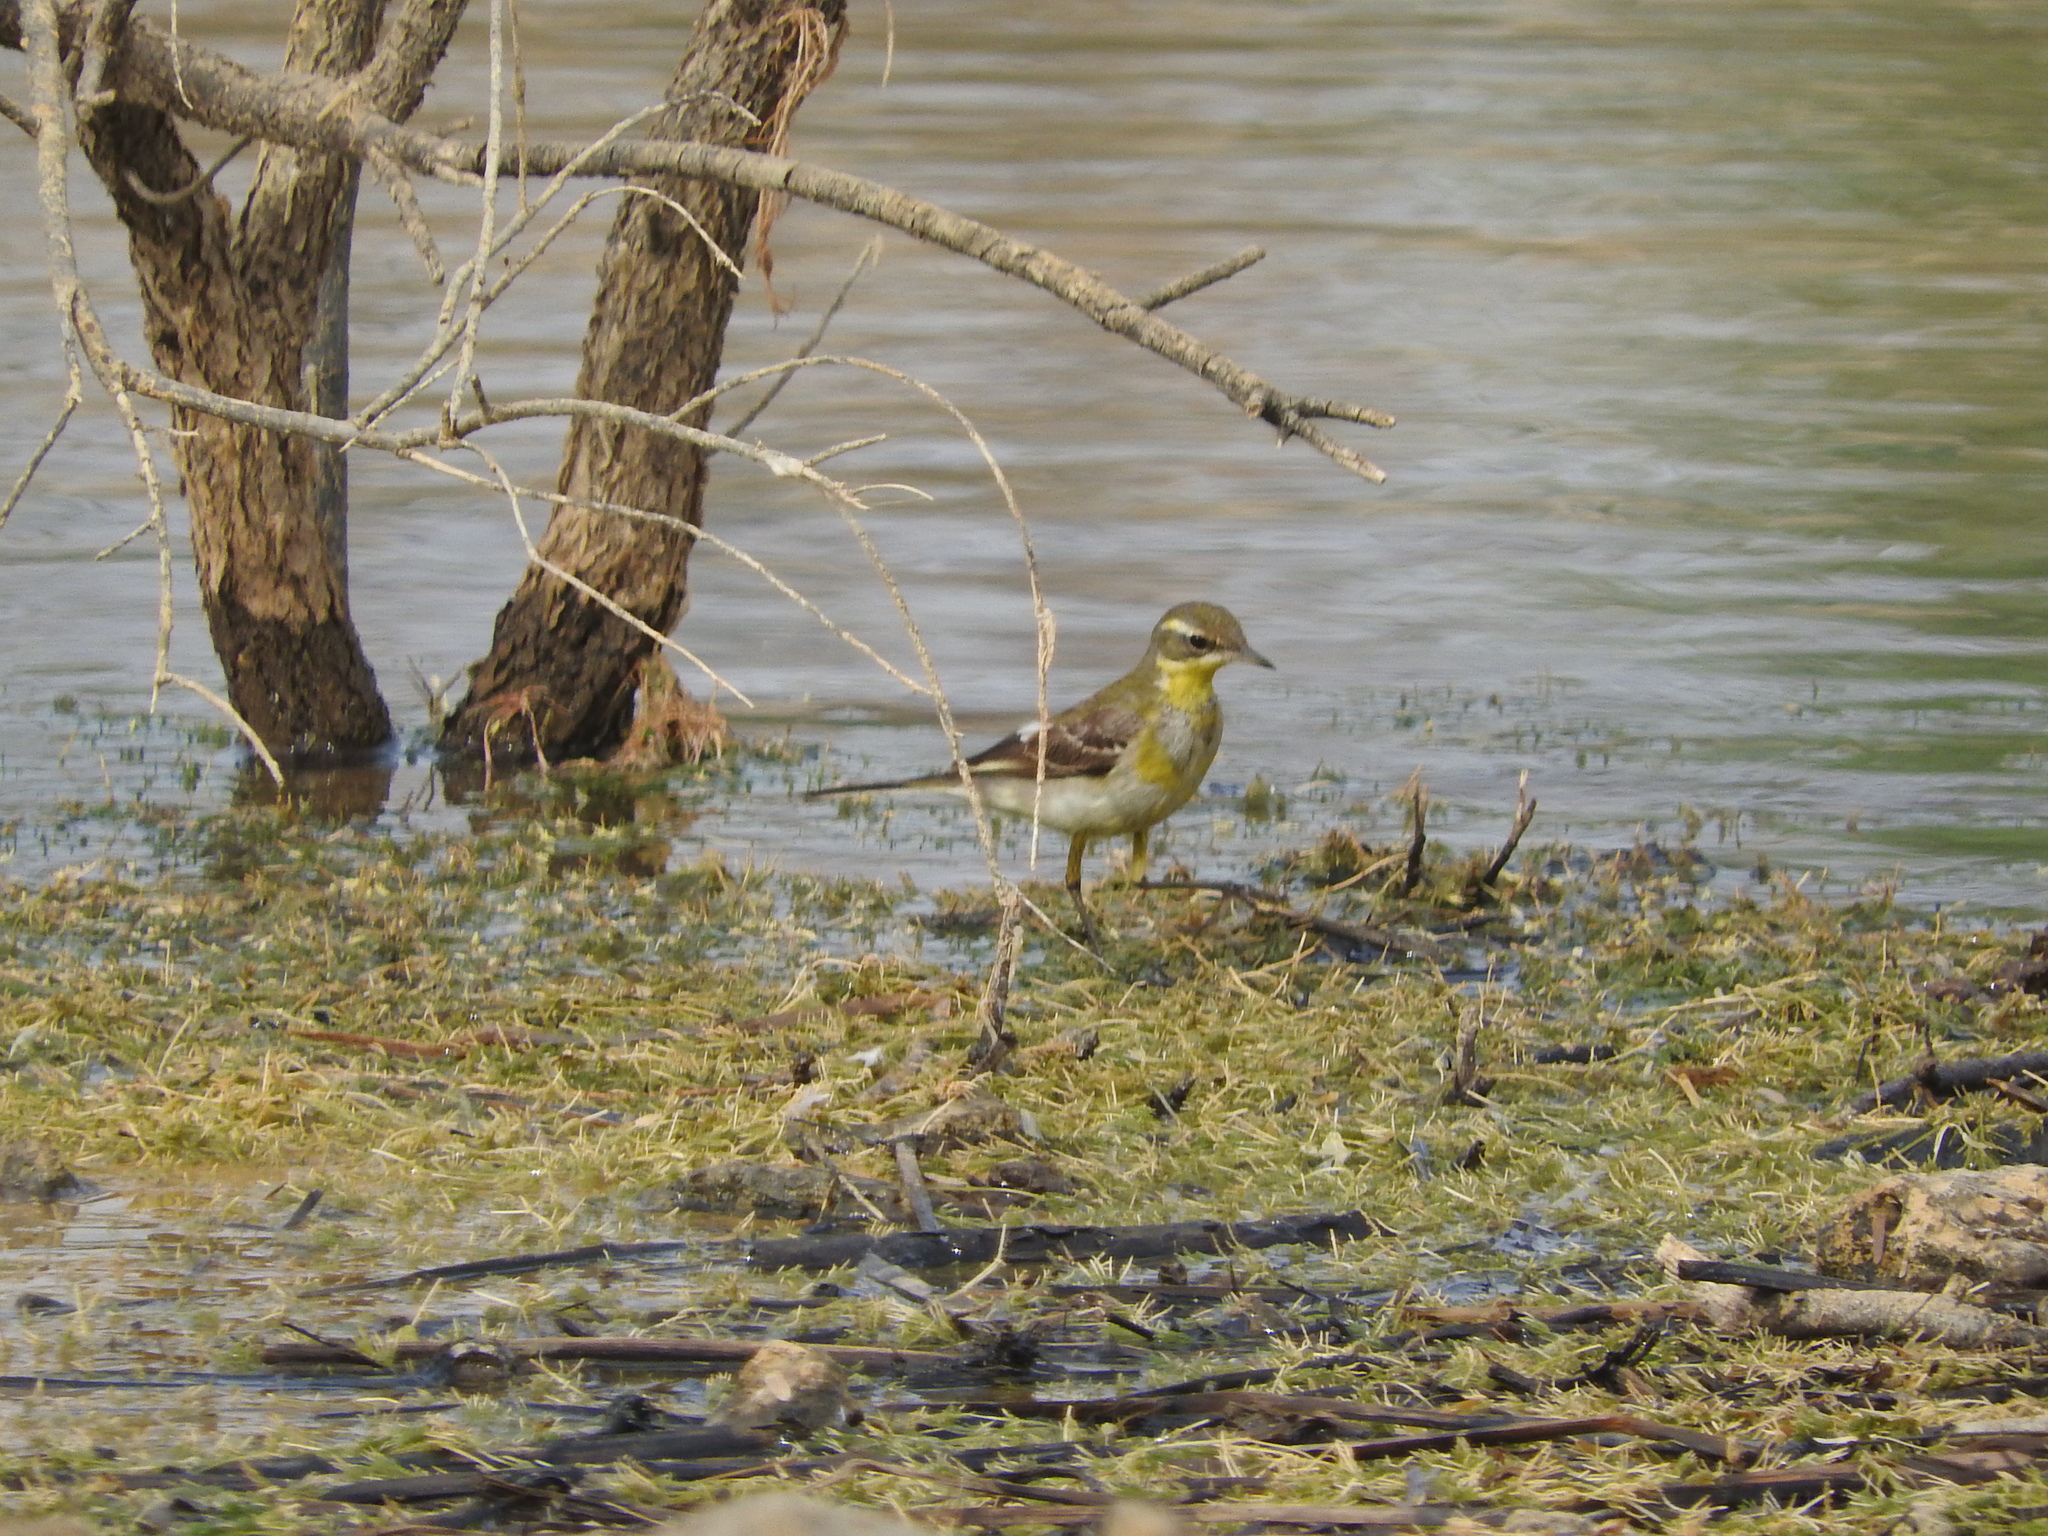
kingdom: Animalia
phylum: Chordata
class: Aves
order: Passeriformes
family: Motacillidae
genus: Motacilla
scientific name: Motacilla flava
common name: Western yellow wagtail
